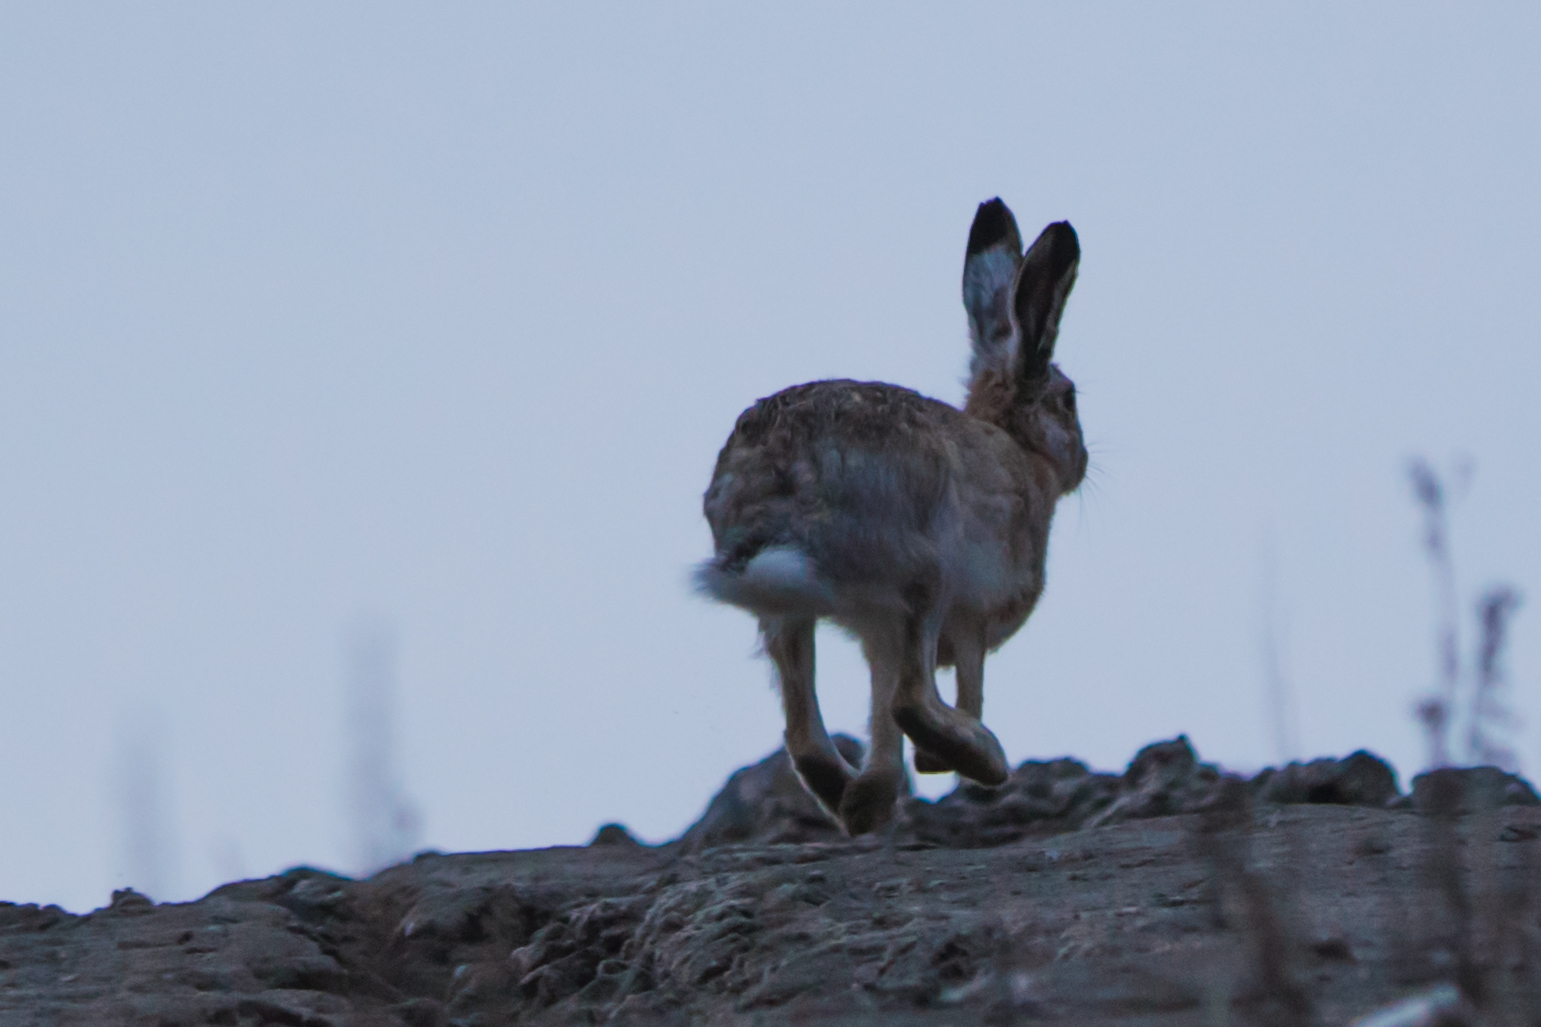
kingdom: Animalia
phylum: Chordata
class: Mammalia
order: Lagomorpha
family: Leporidae
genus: Lepus
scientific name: Lepus europaeus
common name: European hare
